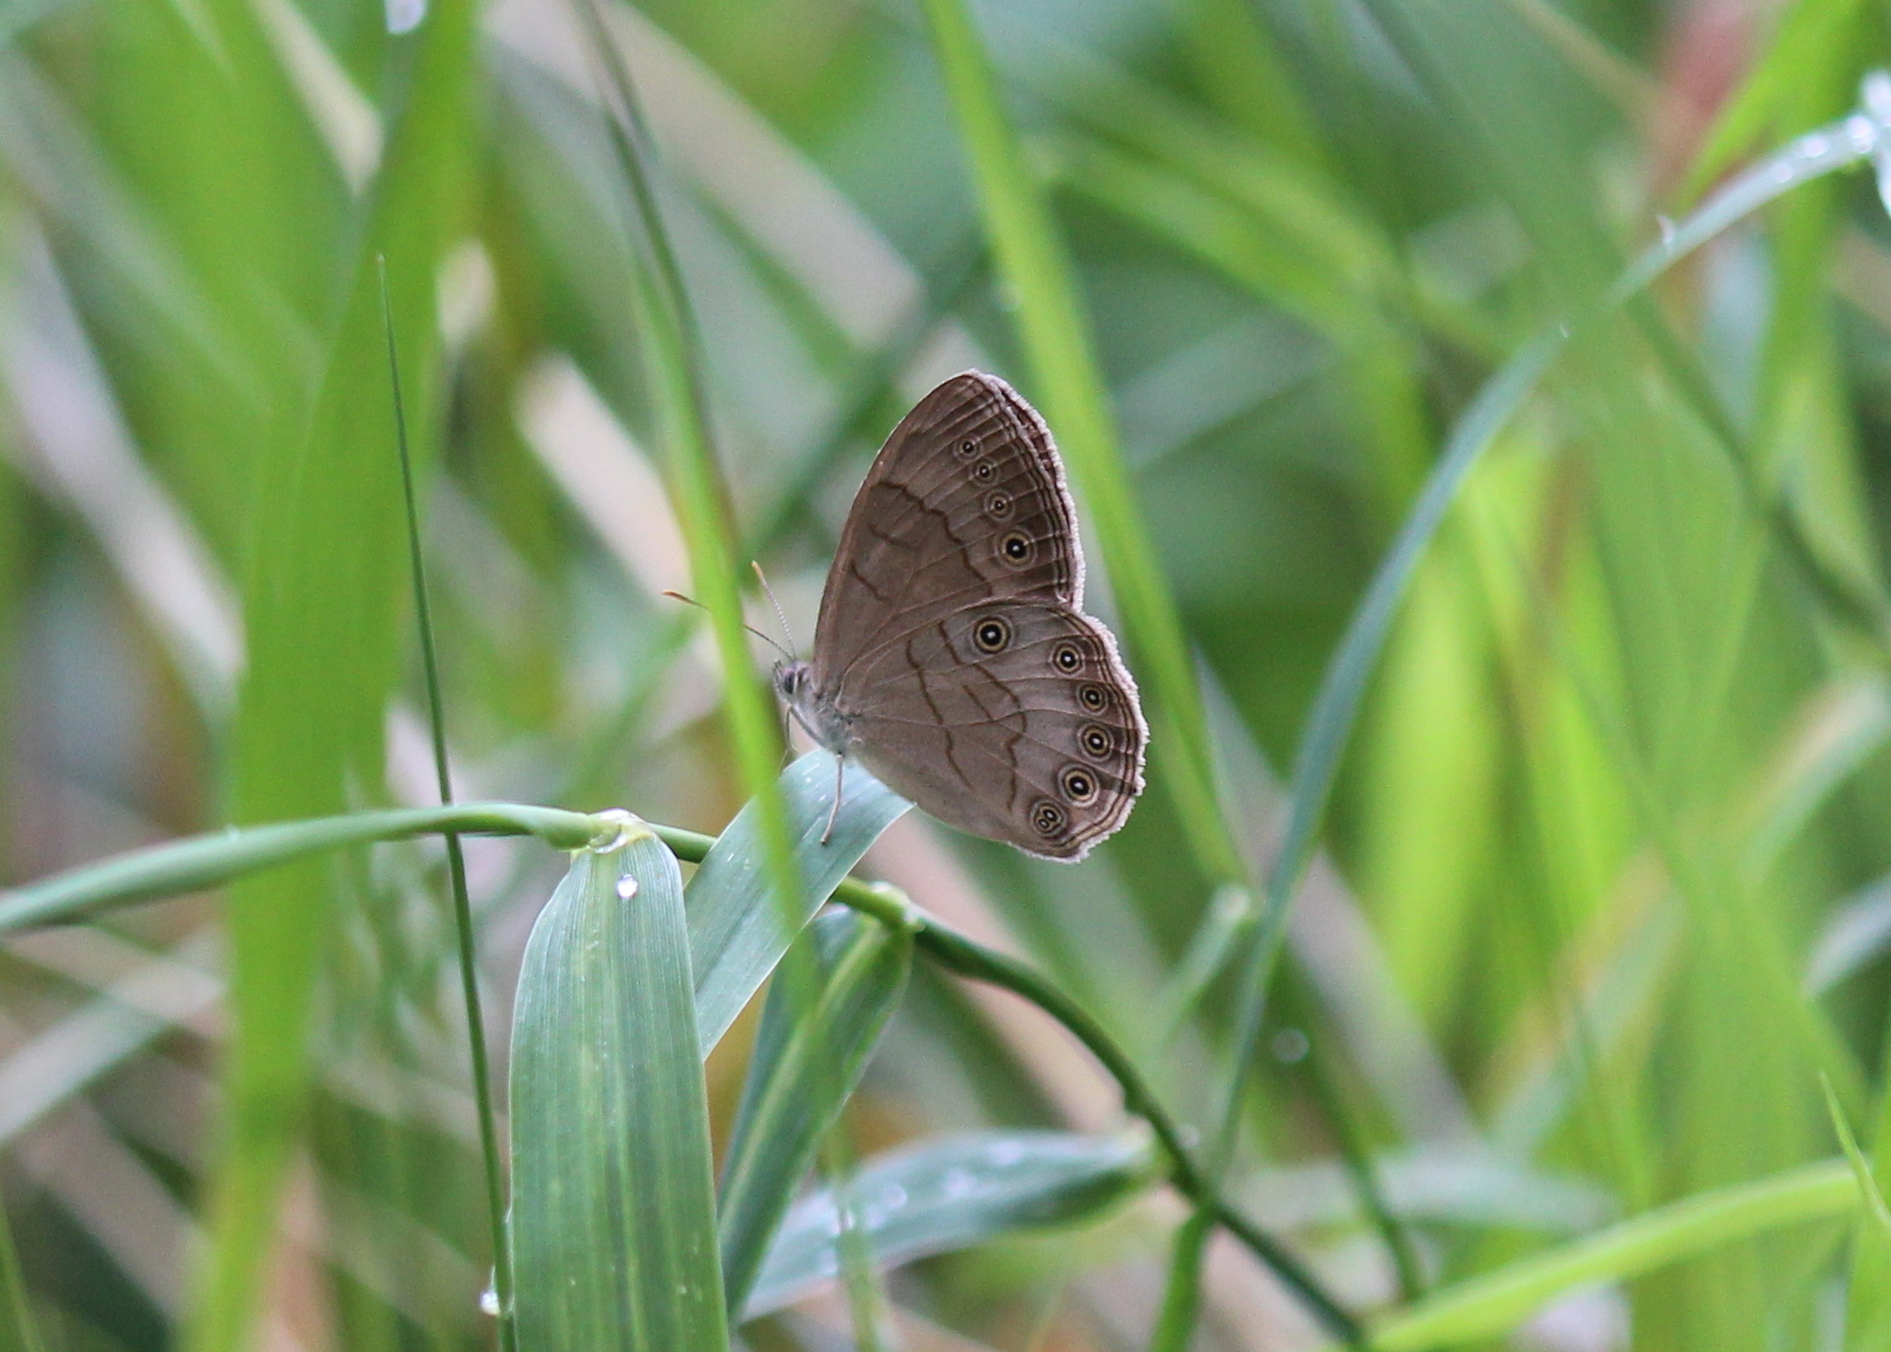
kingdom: Animalia
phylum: Arthropoda
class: Insecta
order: Lepidoptera
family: Nymphalidae
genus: Lethe
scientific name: Lethe eurydice
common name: Eyed brown
